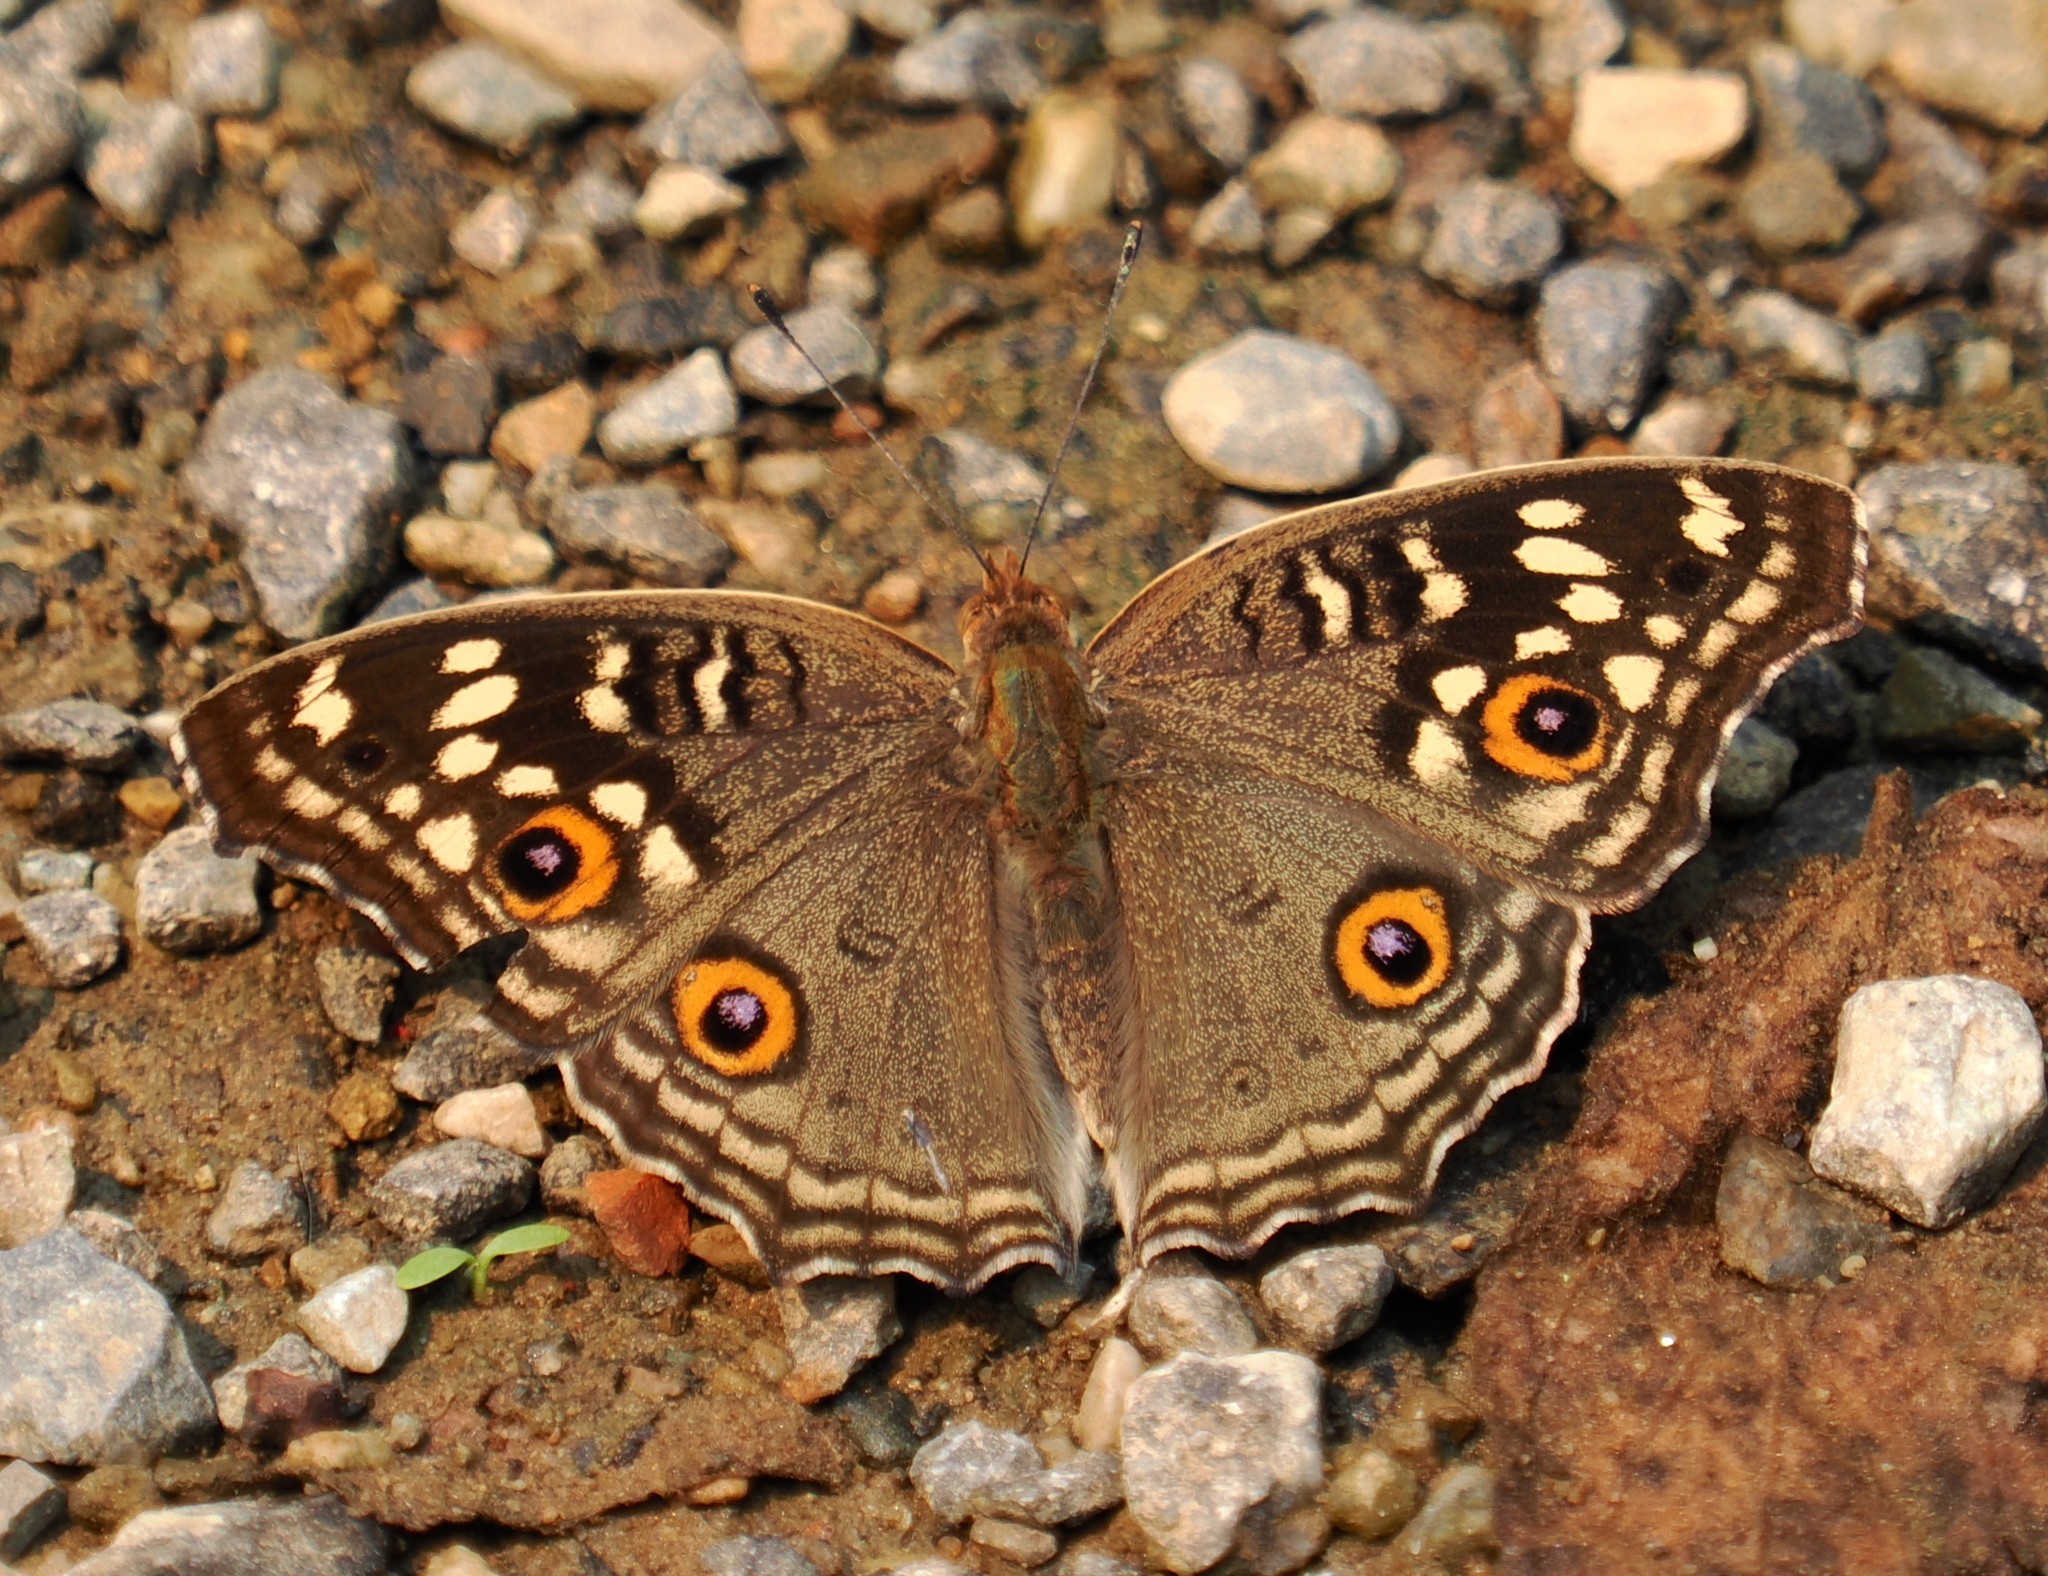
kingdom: Animalia
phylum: Arthropoda
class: Insecta
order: Lepidoptera
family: Nymphalidae
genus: Junonia
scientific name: Junonia lemonias
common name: Lemon pansy
